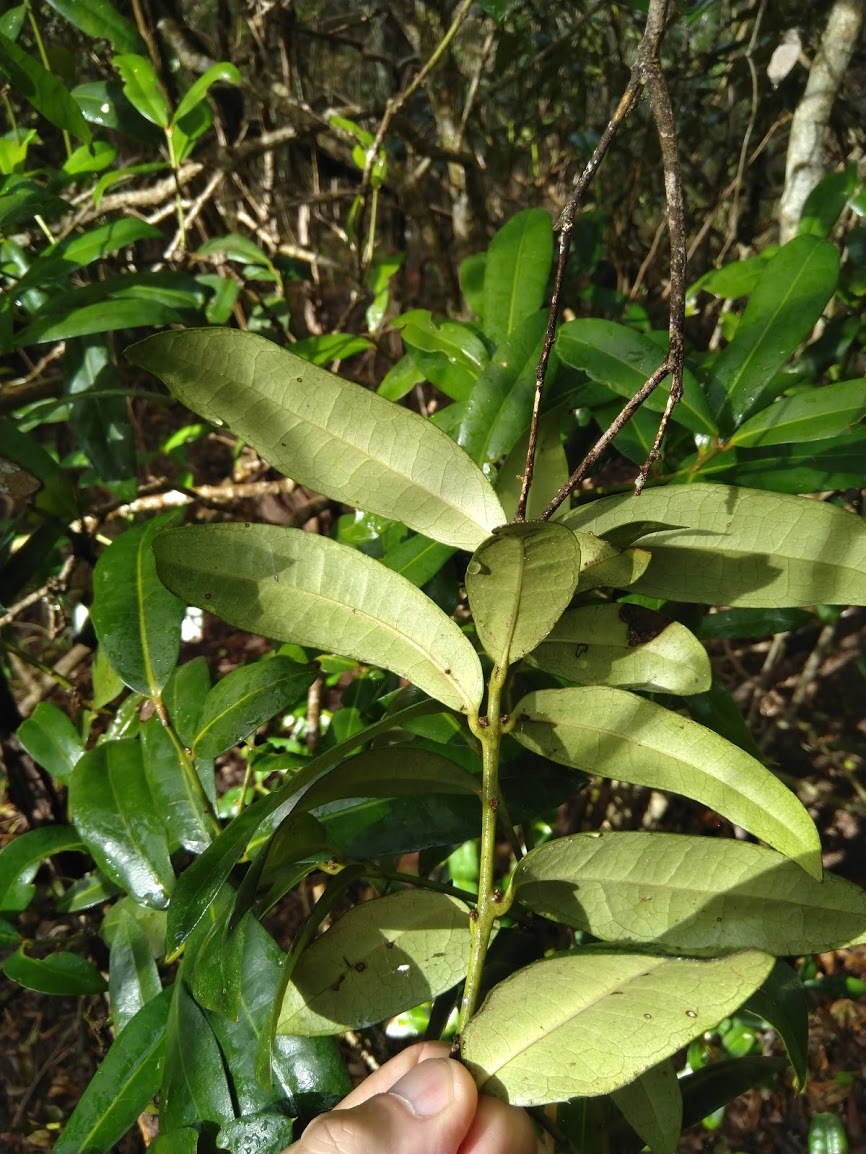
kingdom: Plantae
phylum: Tracheophyta
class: Magnoliopsida
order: Laurales
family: Monimiaceae
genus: Wilkiea
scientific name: Wilkiea macrophylla
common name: Large-leaved wilkiea
